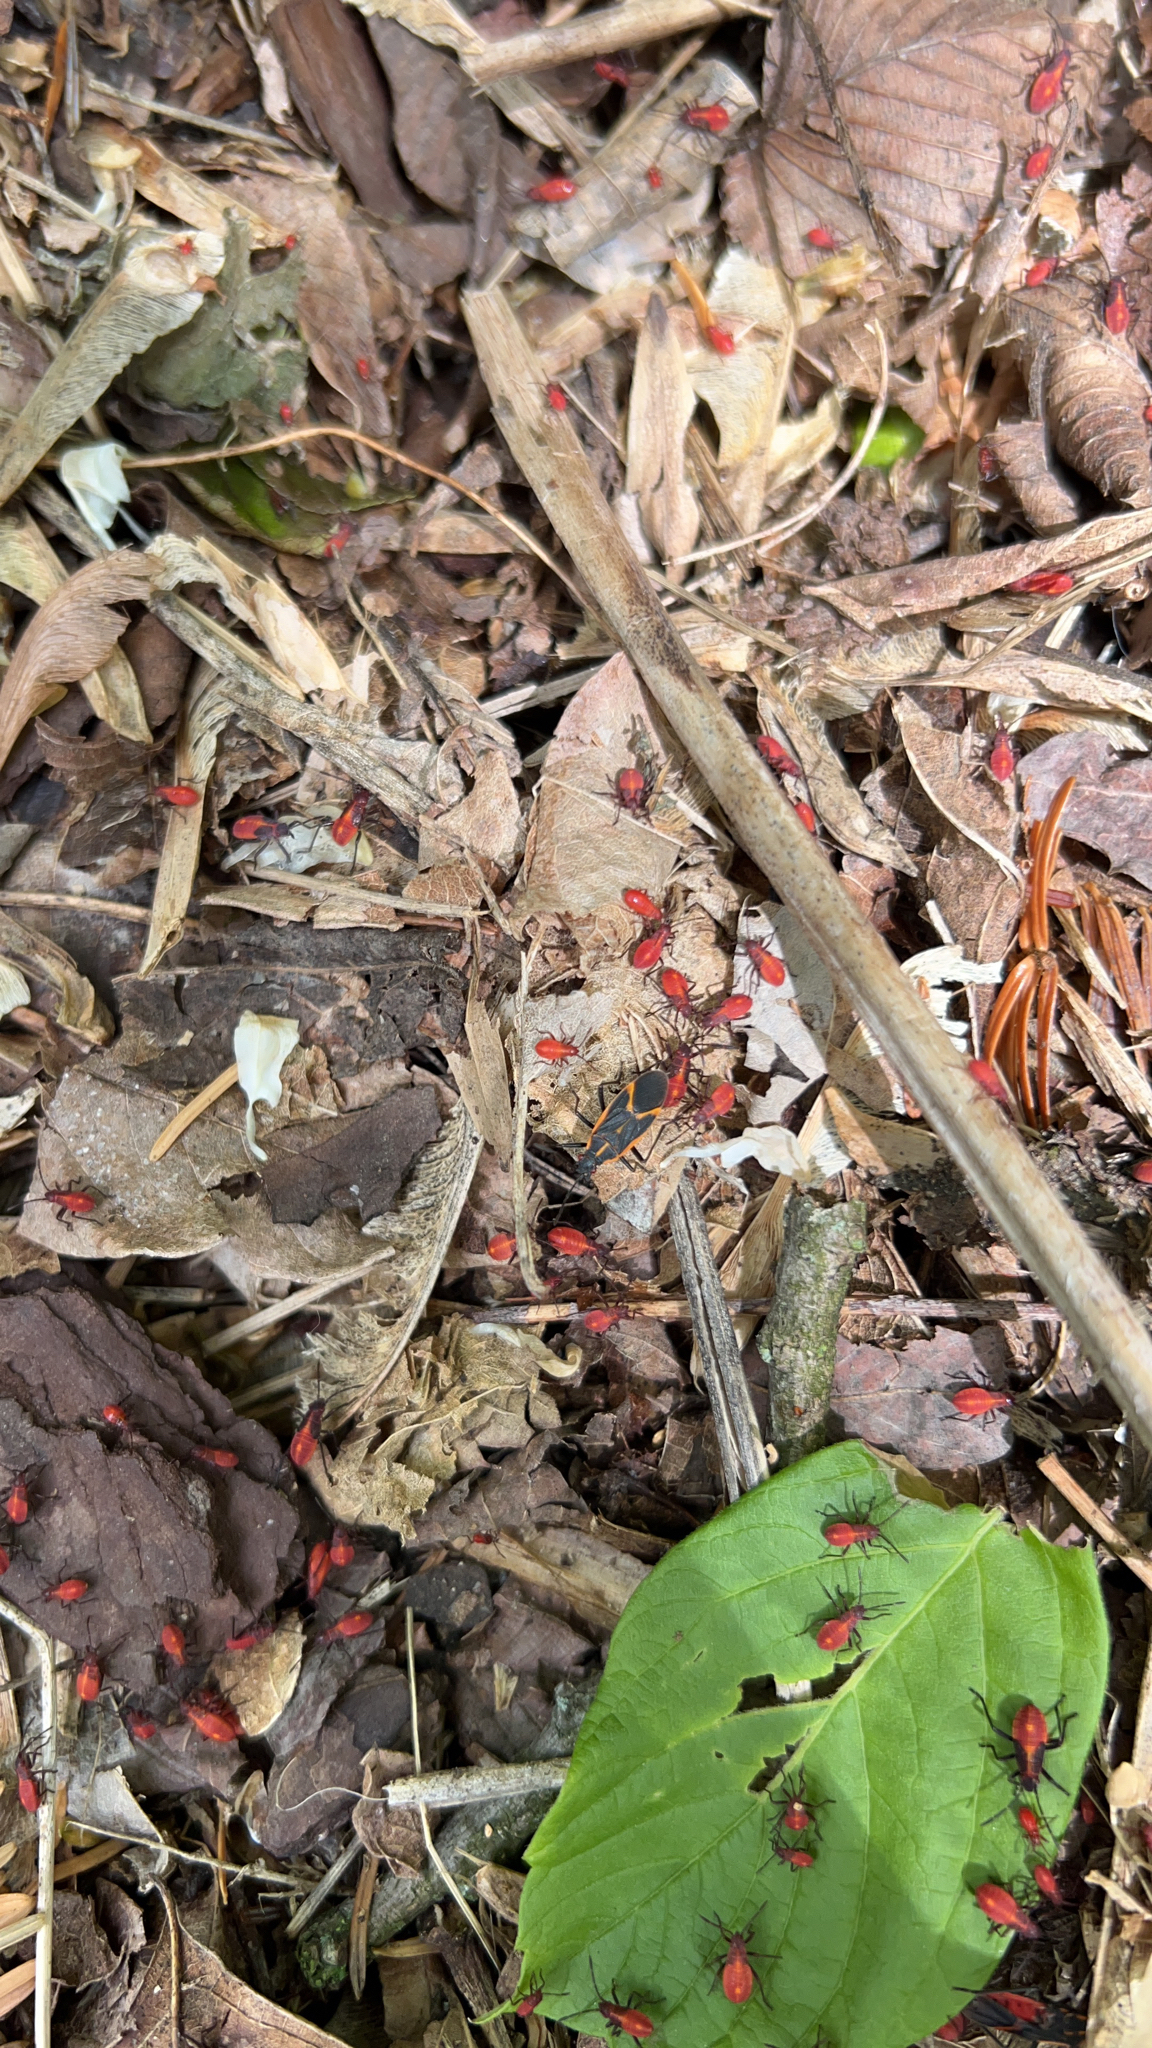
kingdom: Animalia
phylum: Arthropoda
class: Insecta
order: Hemiptera
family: Rhopalidae
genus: Boisea
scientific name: Boisea trivittata
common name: Boxelder bug
